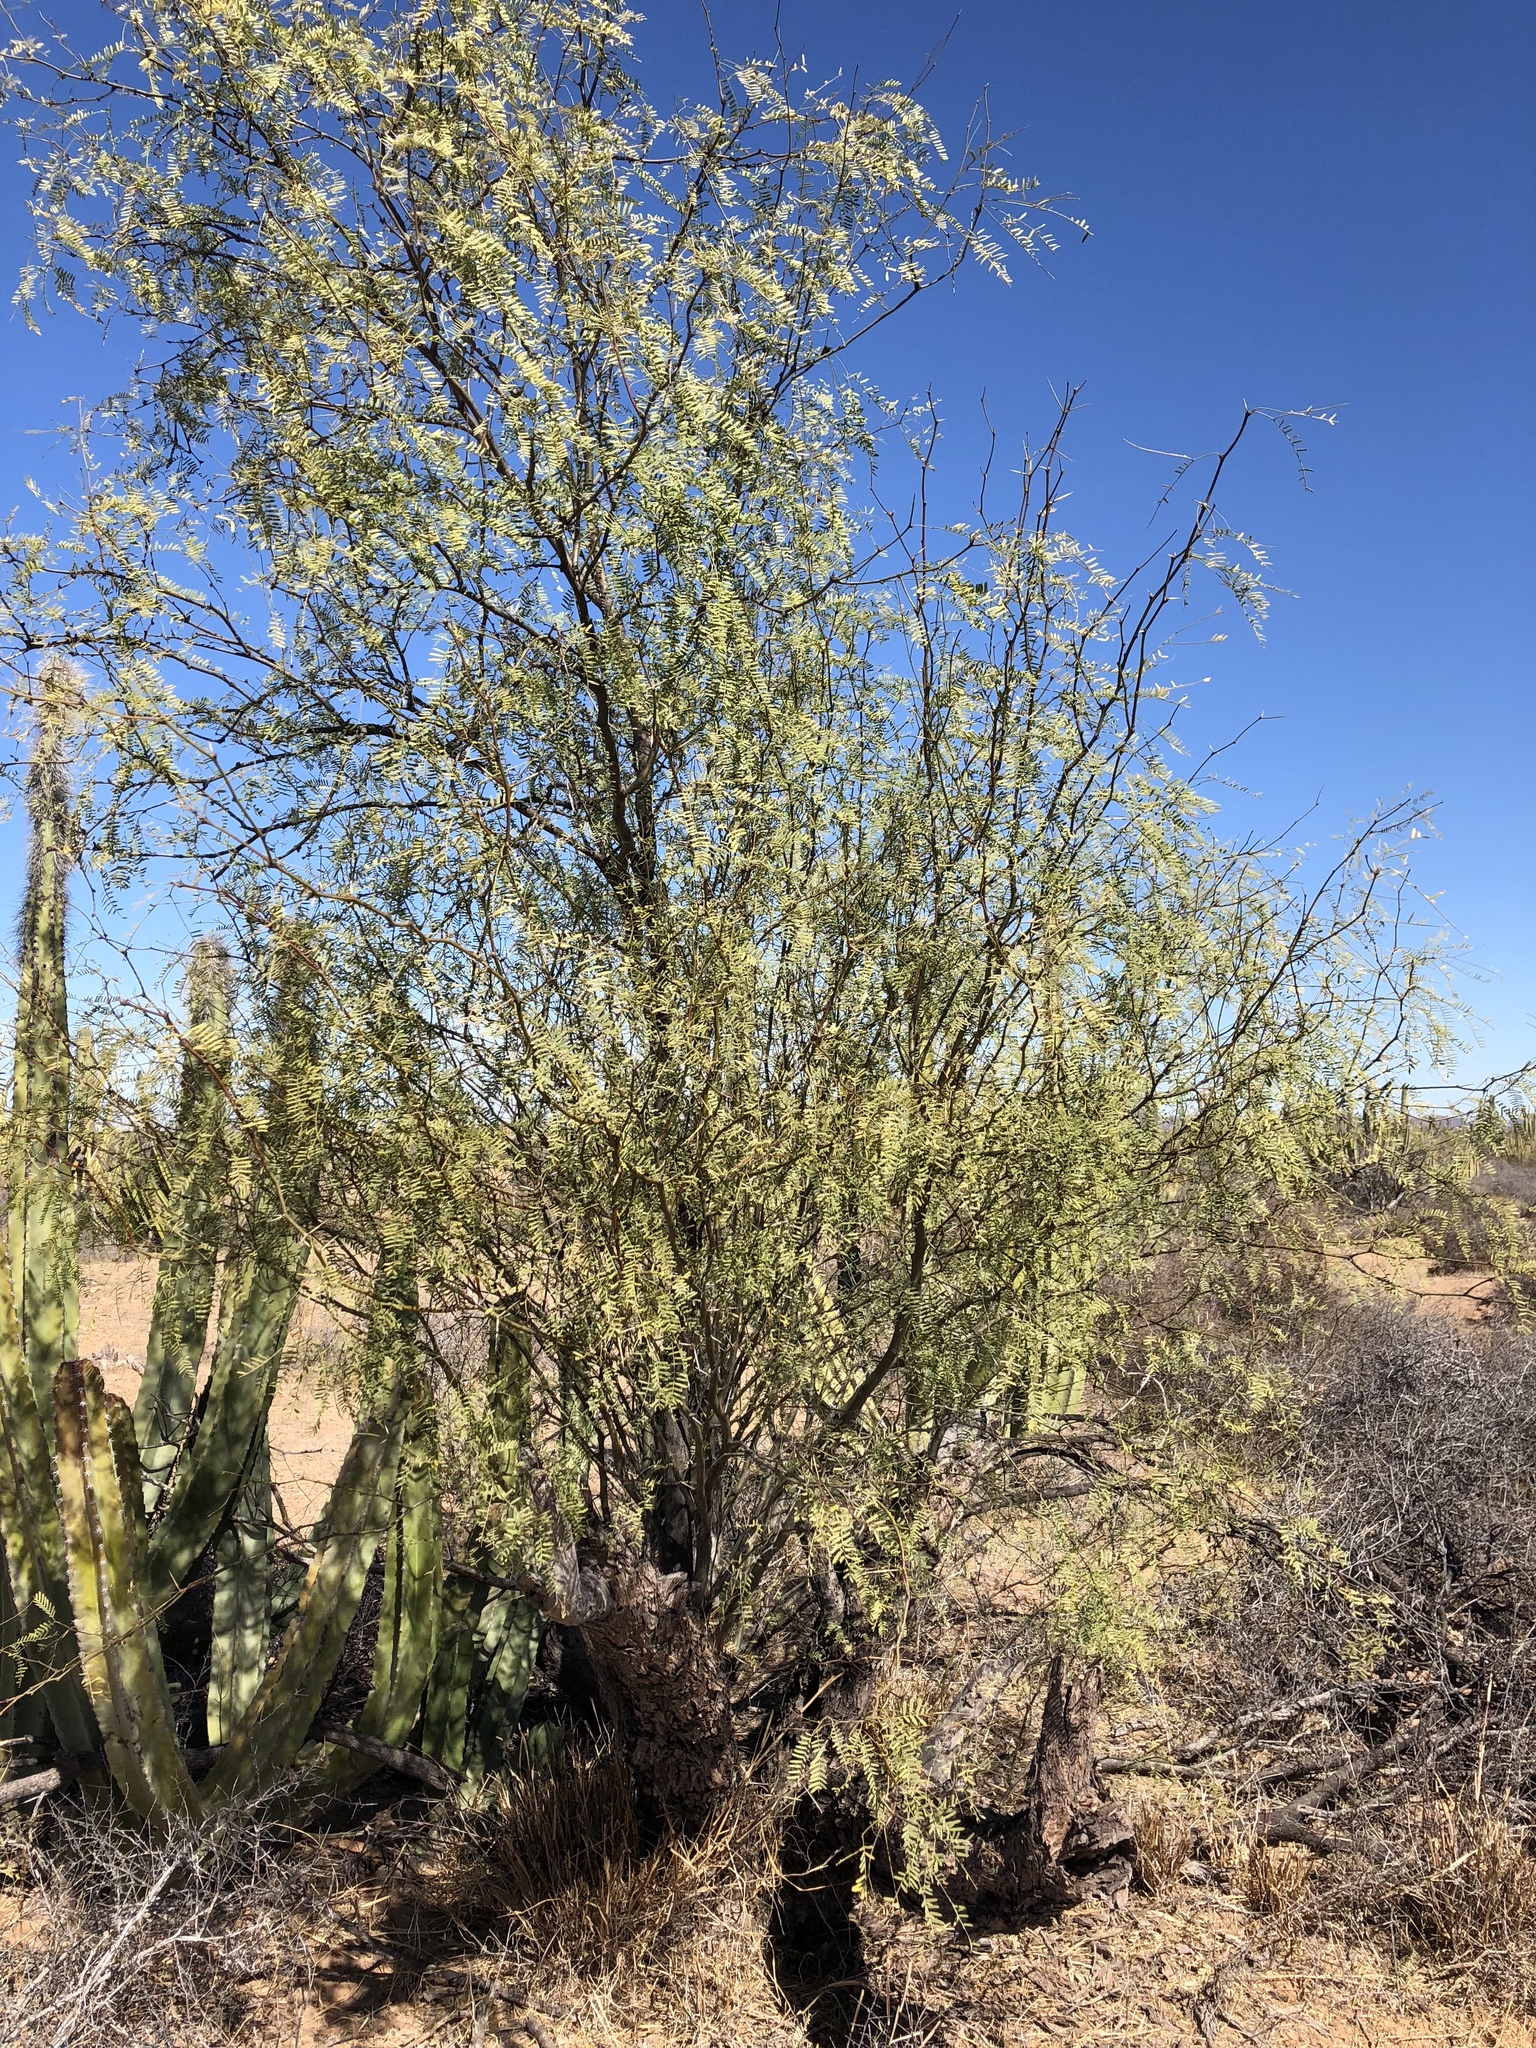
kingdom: Plantae
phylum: Tracheophyta
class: Magnoliopsida
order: Fabales
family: Fabaceae
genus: Prosopis
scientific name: Prosopis pubescens
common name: Screw-bean
